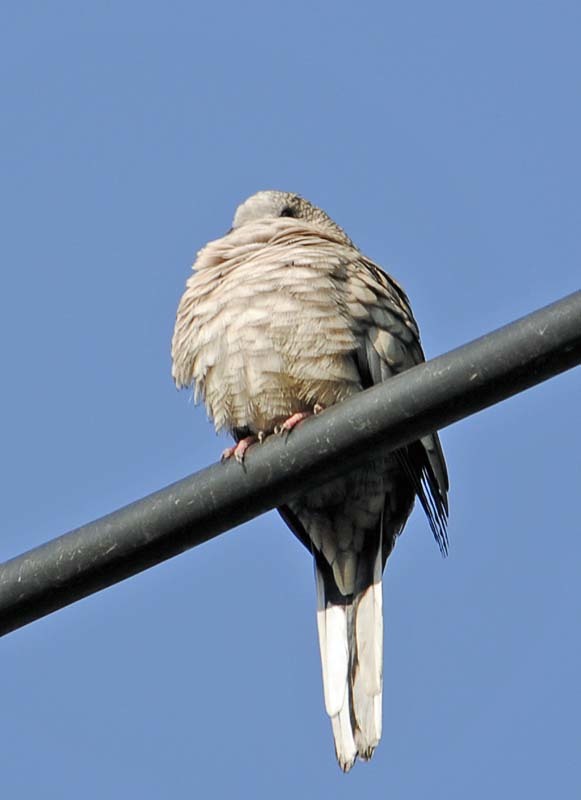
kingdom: Animalia
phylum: Chordata
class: Aves
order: Columbiformes
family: Columbidae
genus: Columbina
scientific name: Columbina inca
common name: Inca dove
